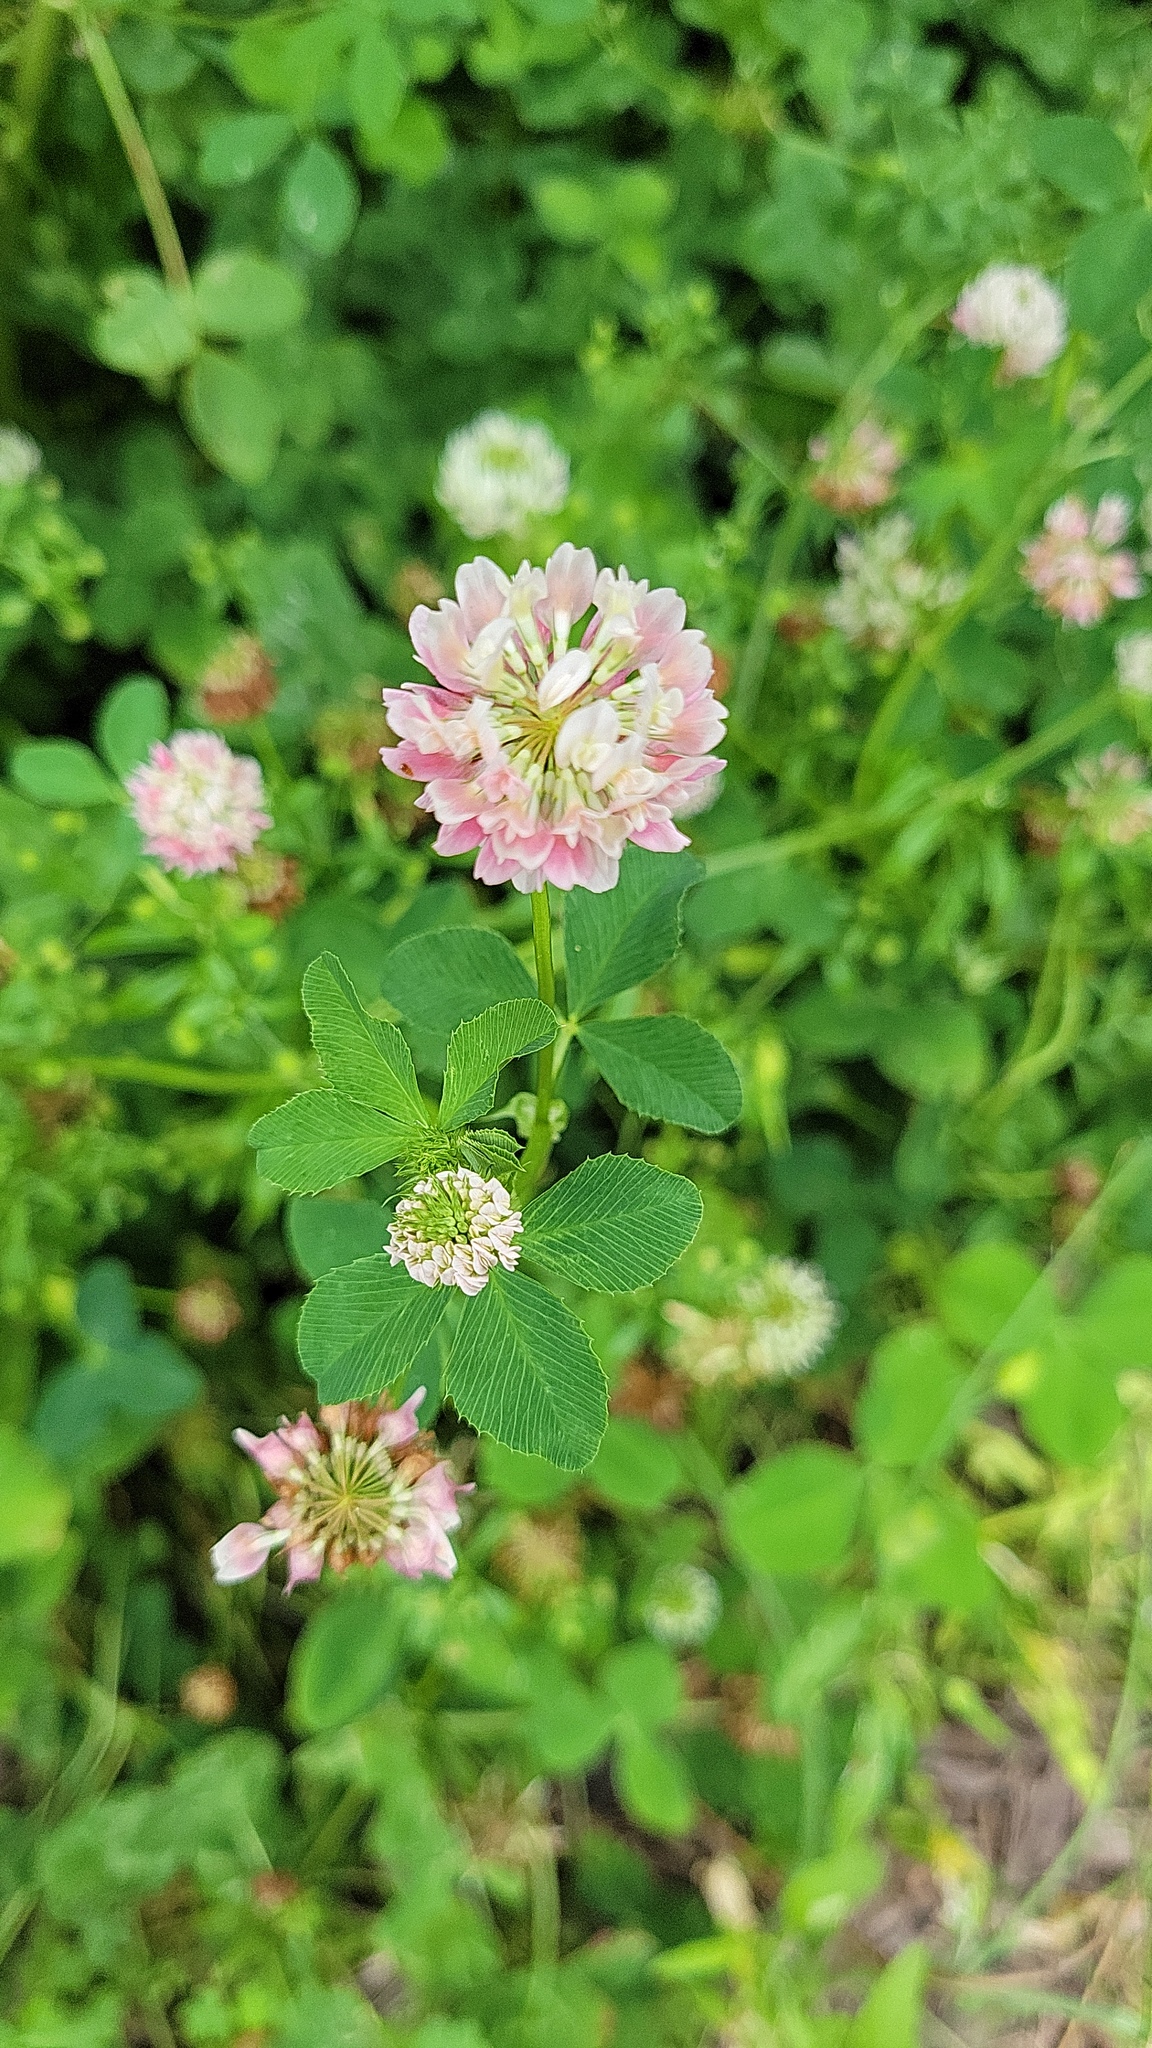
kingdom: Plantae
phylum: Tracheophyta
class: Magnoliopsida
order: Fabales
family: Fabaceae
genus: Trifolium
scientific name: Trifolium hybridum
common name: Alsike clover
